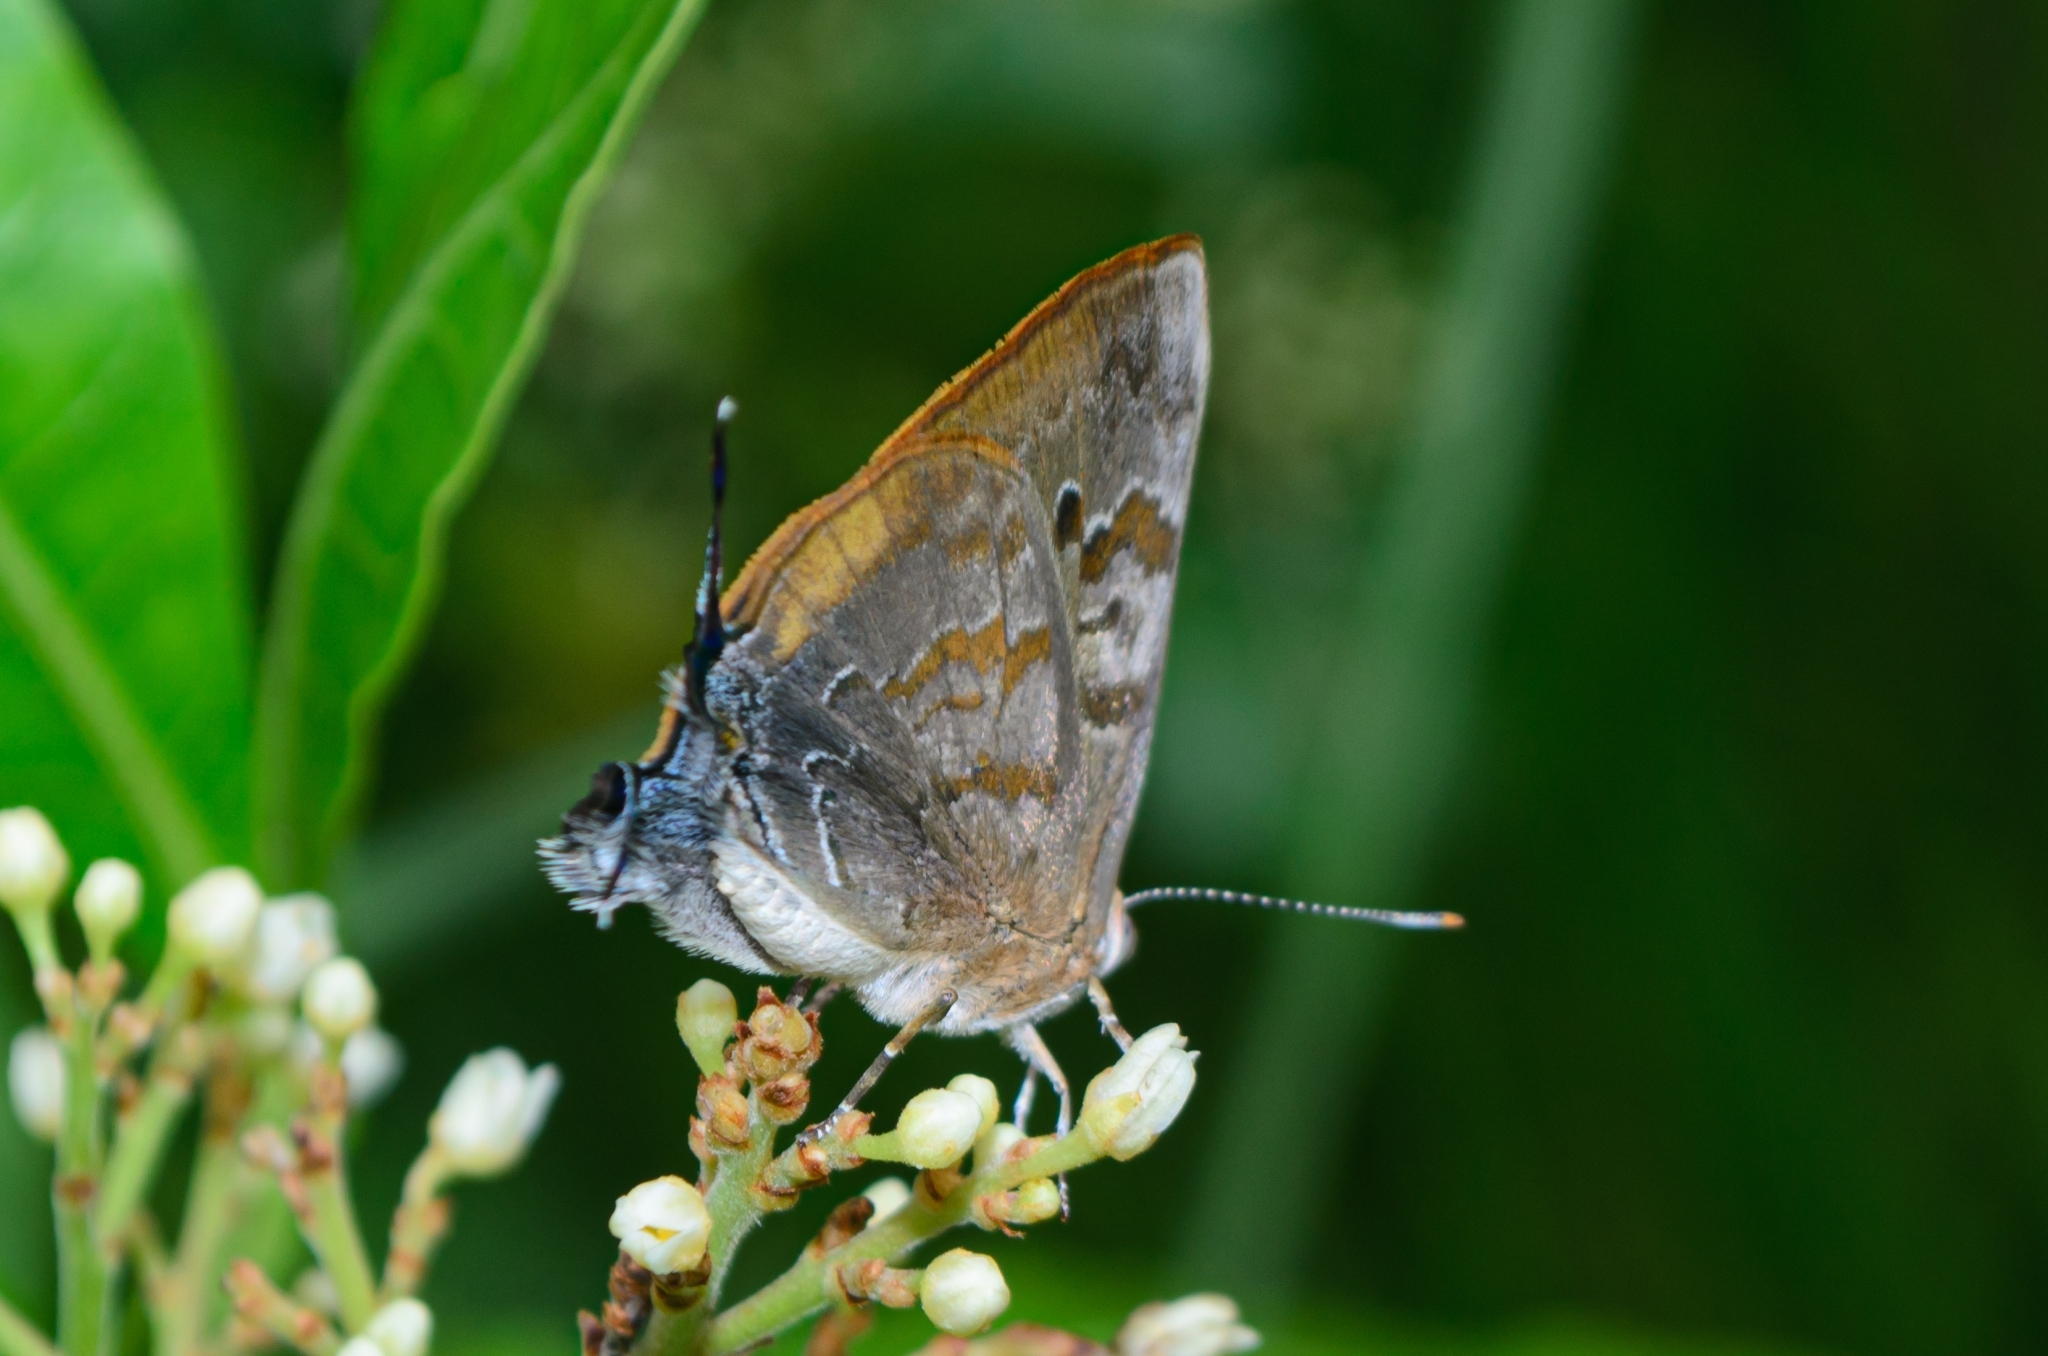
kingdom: Animalia
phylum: Arthropoda
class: Insecta
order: Lepidoptera
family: Lycaenidae
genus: Rekoa
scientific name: Rekoa palegon
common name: Gold-bordered hairstreak
